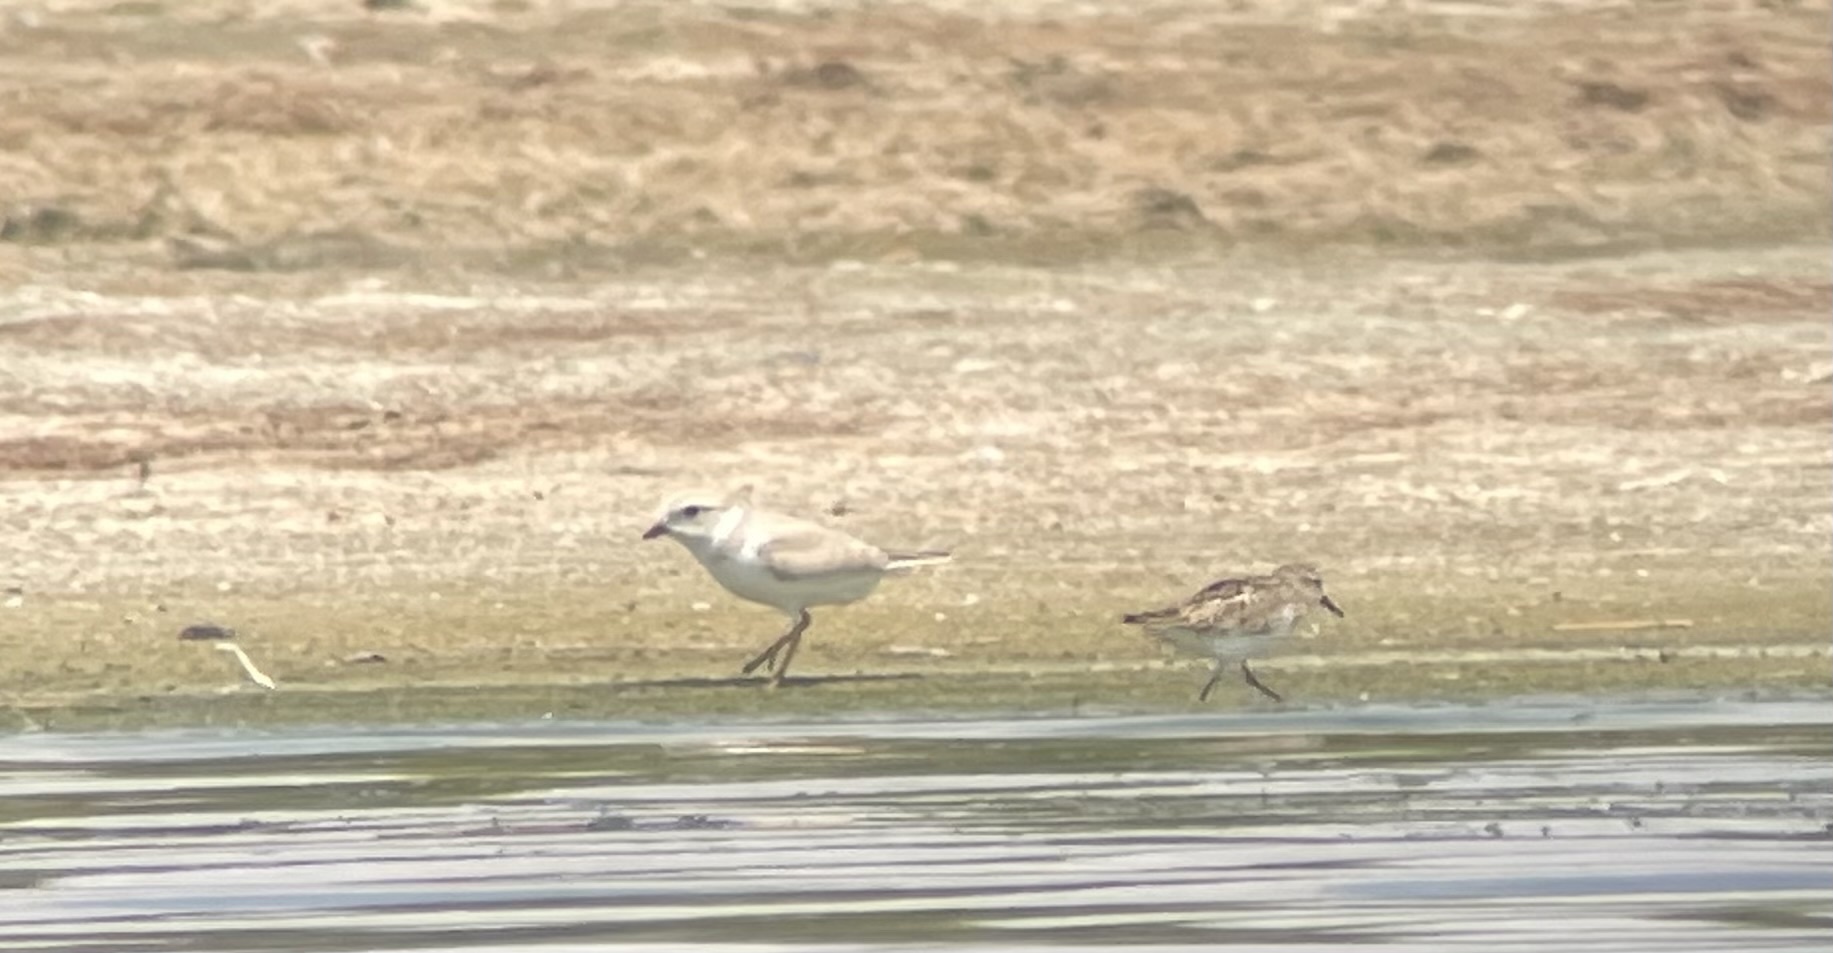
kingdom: Animalia
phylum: Chordata
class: Aves
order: Charadriiformes
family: Charadriidae
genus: Charadrius
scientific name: Charadrius melodus
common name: Piping plover
